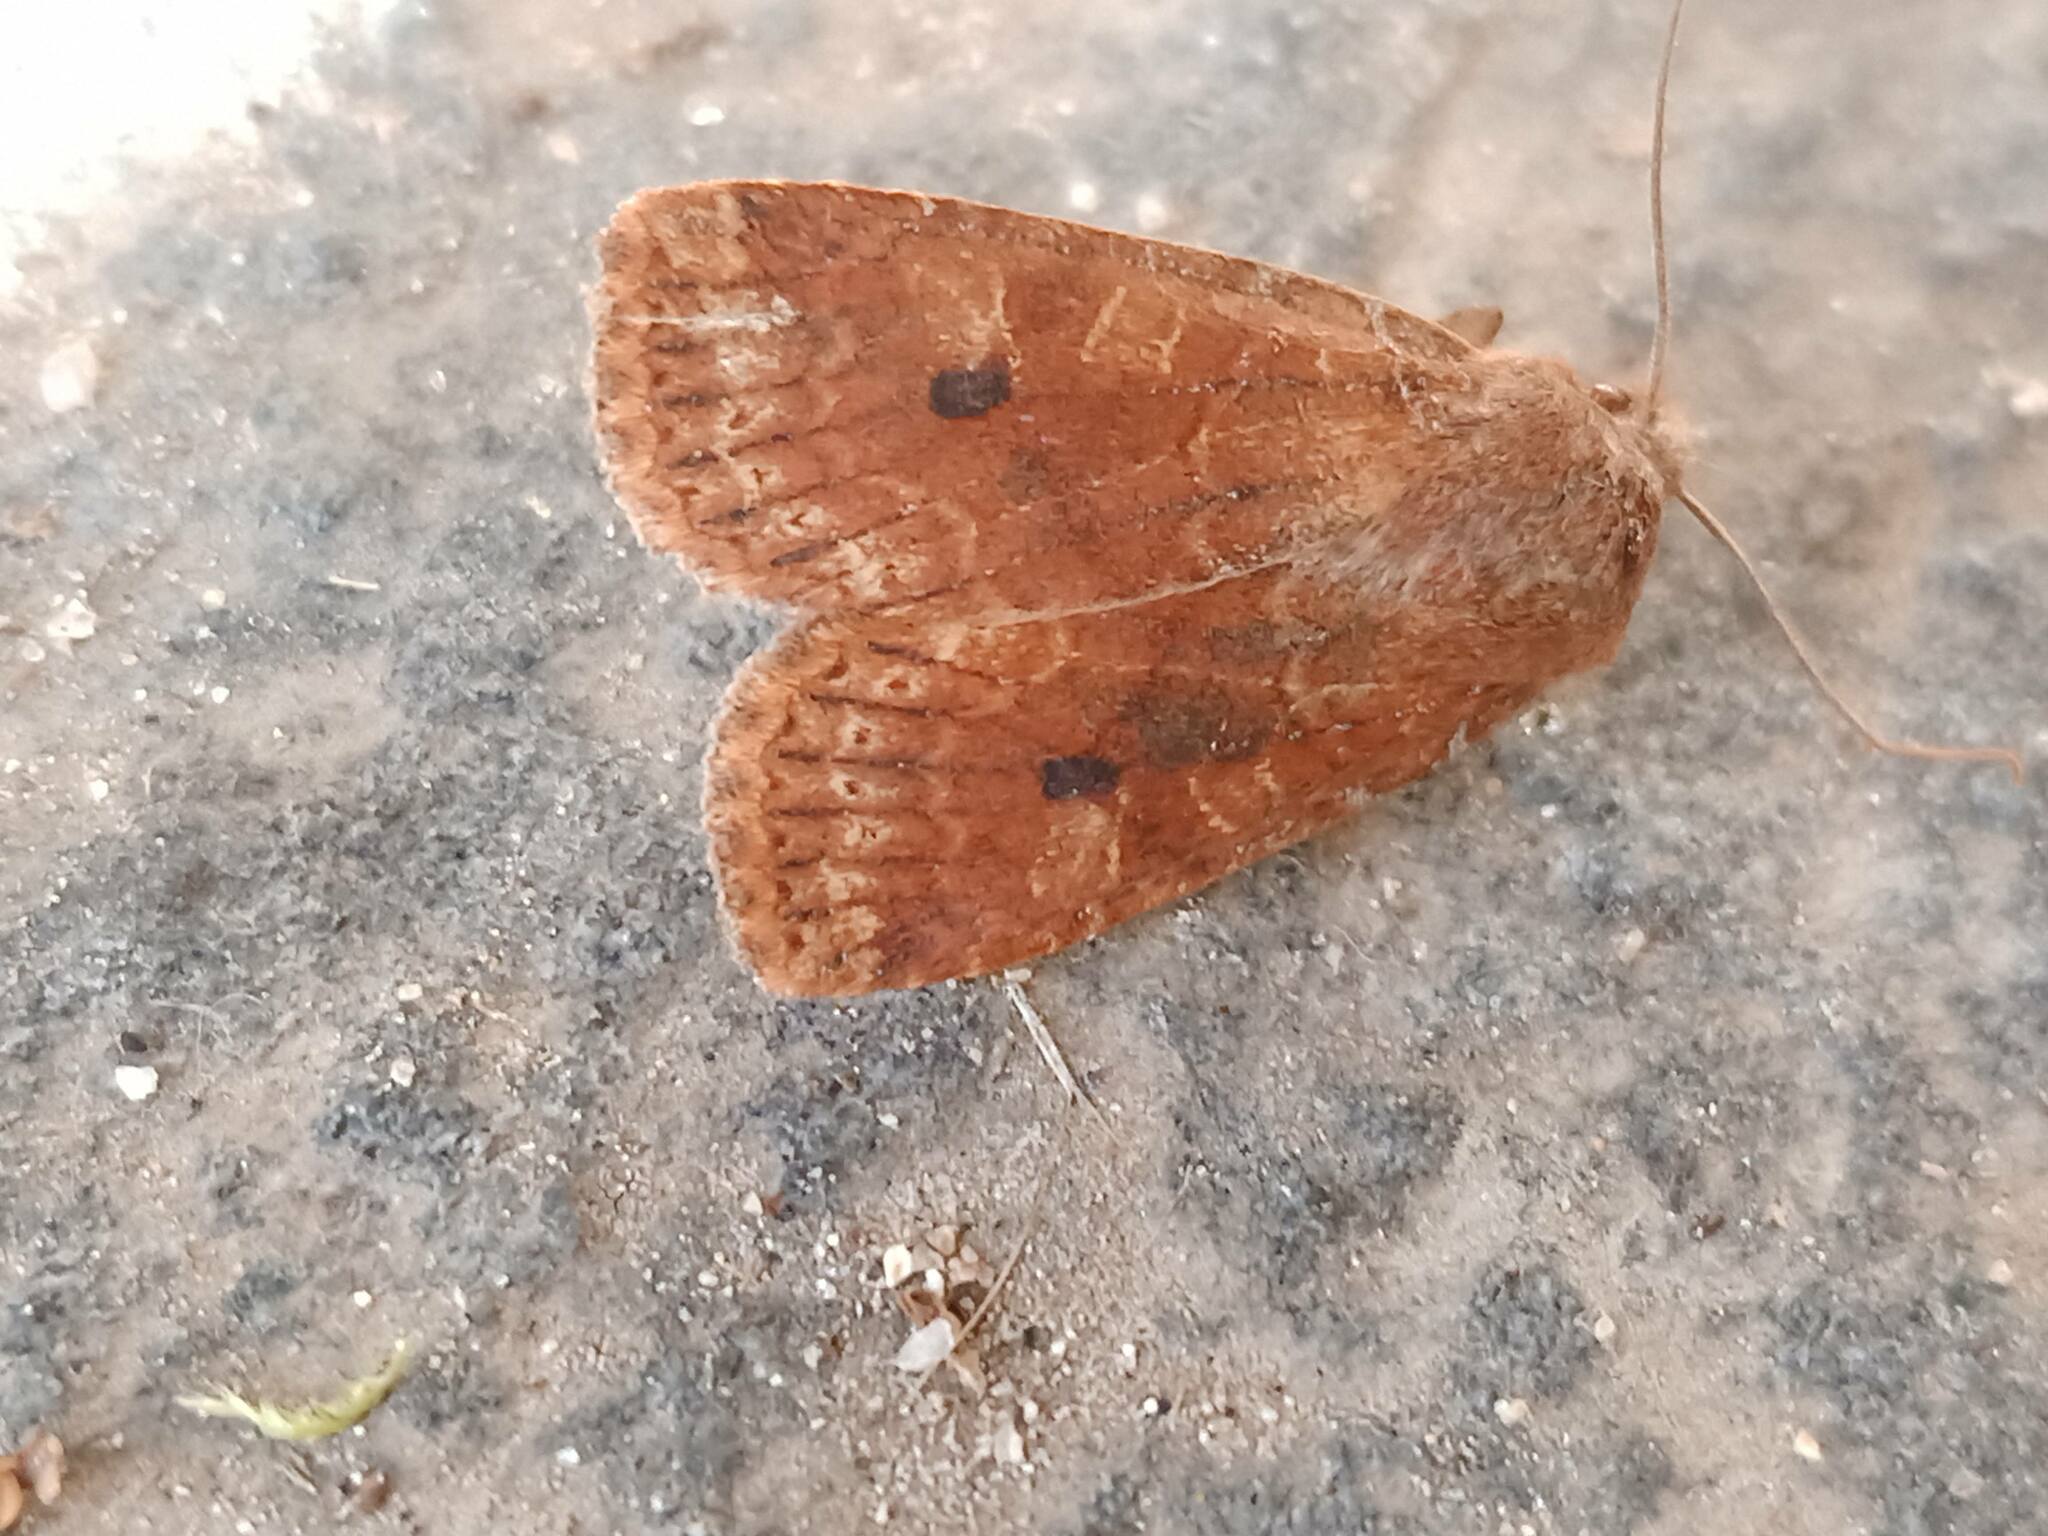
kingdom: Animalia
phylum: Arthropoda
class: Insecta
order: Lepidoptera
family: Noctuidae
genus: Conistra
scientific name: Conistra vaccinii
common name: Chestnut
